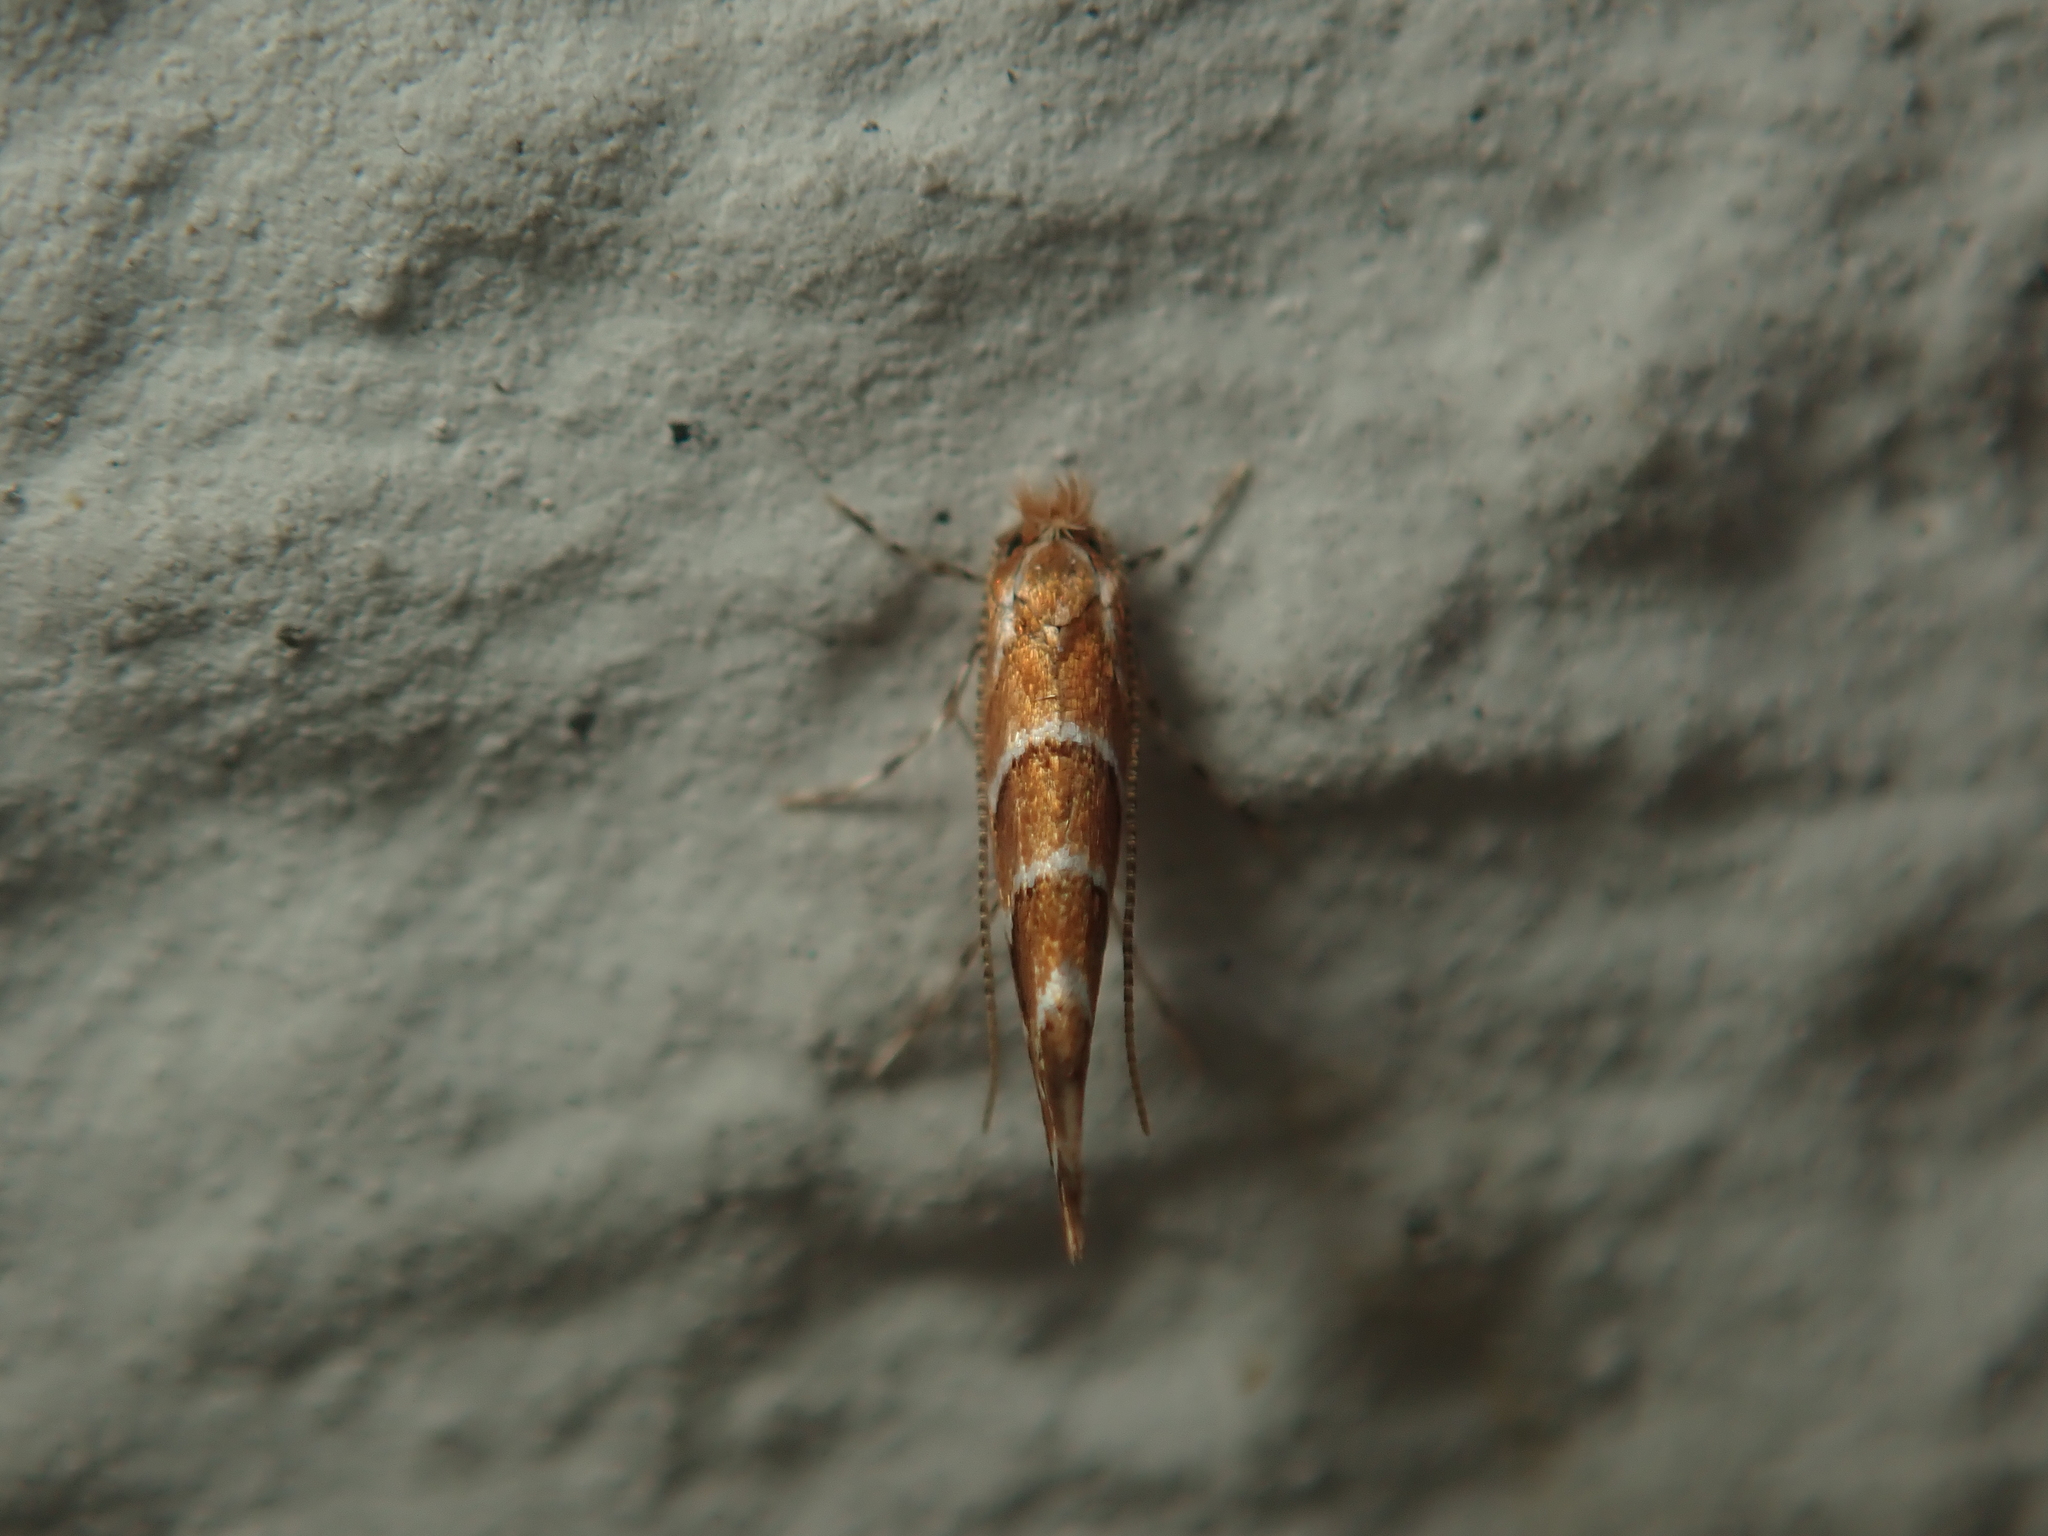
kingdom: Animalia
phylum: Arthropoda
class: Insecta
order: Lepidoptera
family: Gracillariidae
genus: Cameraria
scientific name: Cameraria ohridella
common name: Horse-chestnut leaf-miner
